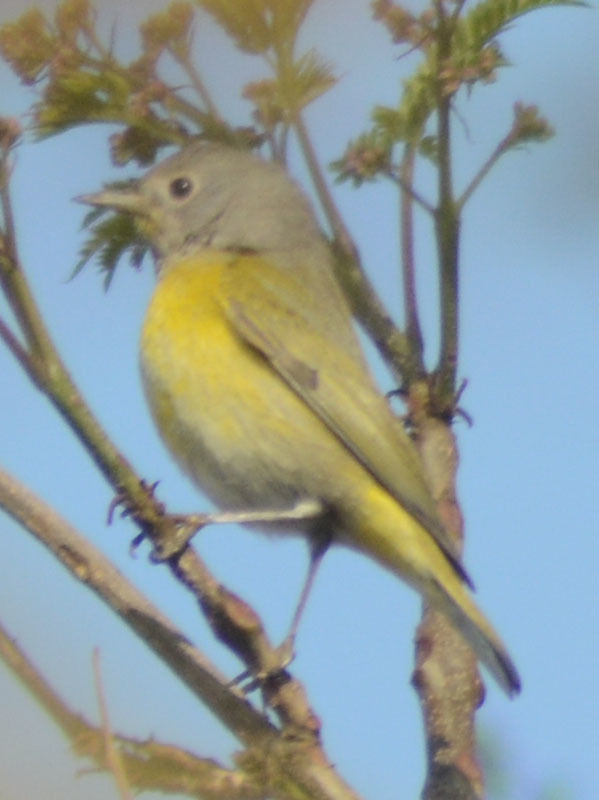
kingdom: Animalia
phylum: Chordata
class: Aves
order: Passeriformes
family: Parulidae
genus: Leiothlypis
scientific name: Leiothlypis ruficapilla
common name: Nashville warbler
